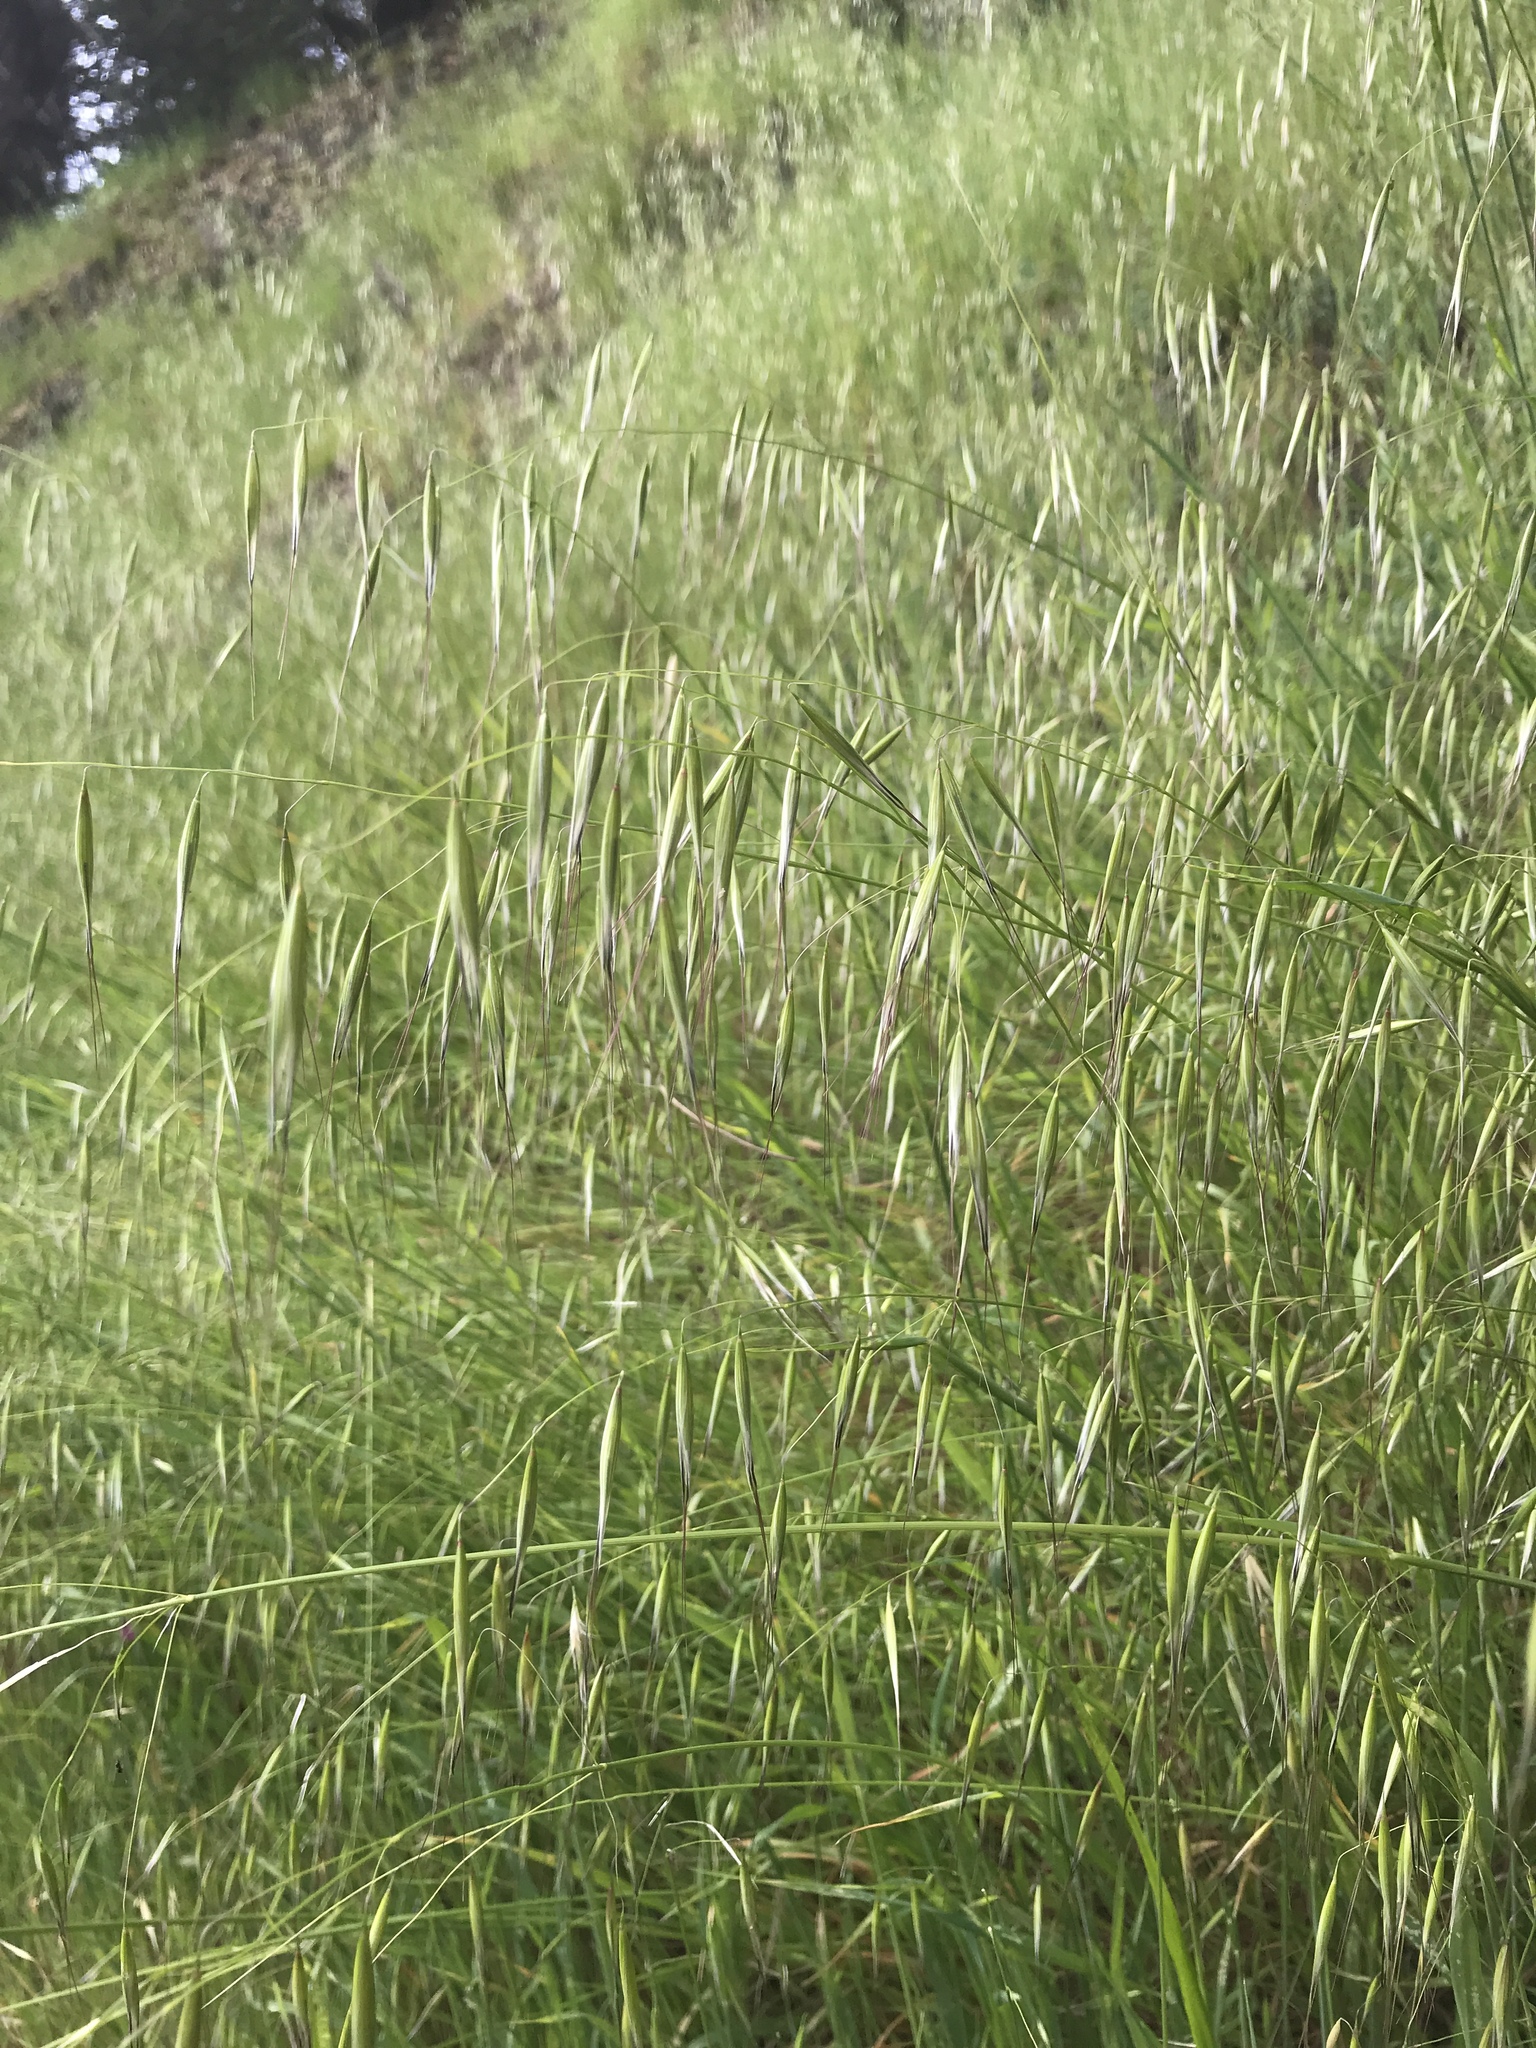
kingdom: Plantae
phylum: Tracheophyta
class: Liliopsida
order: Poales
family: Poaceae
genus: Avena
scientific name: Avena fatua
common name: Wild oat
